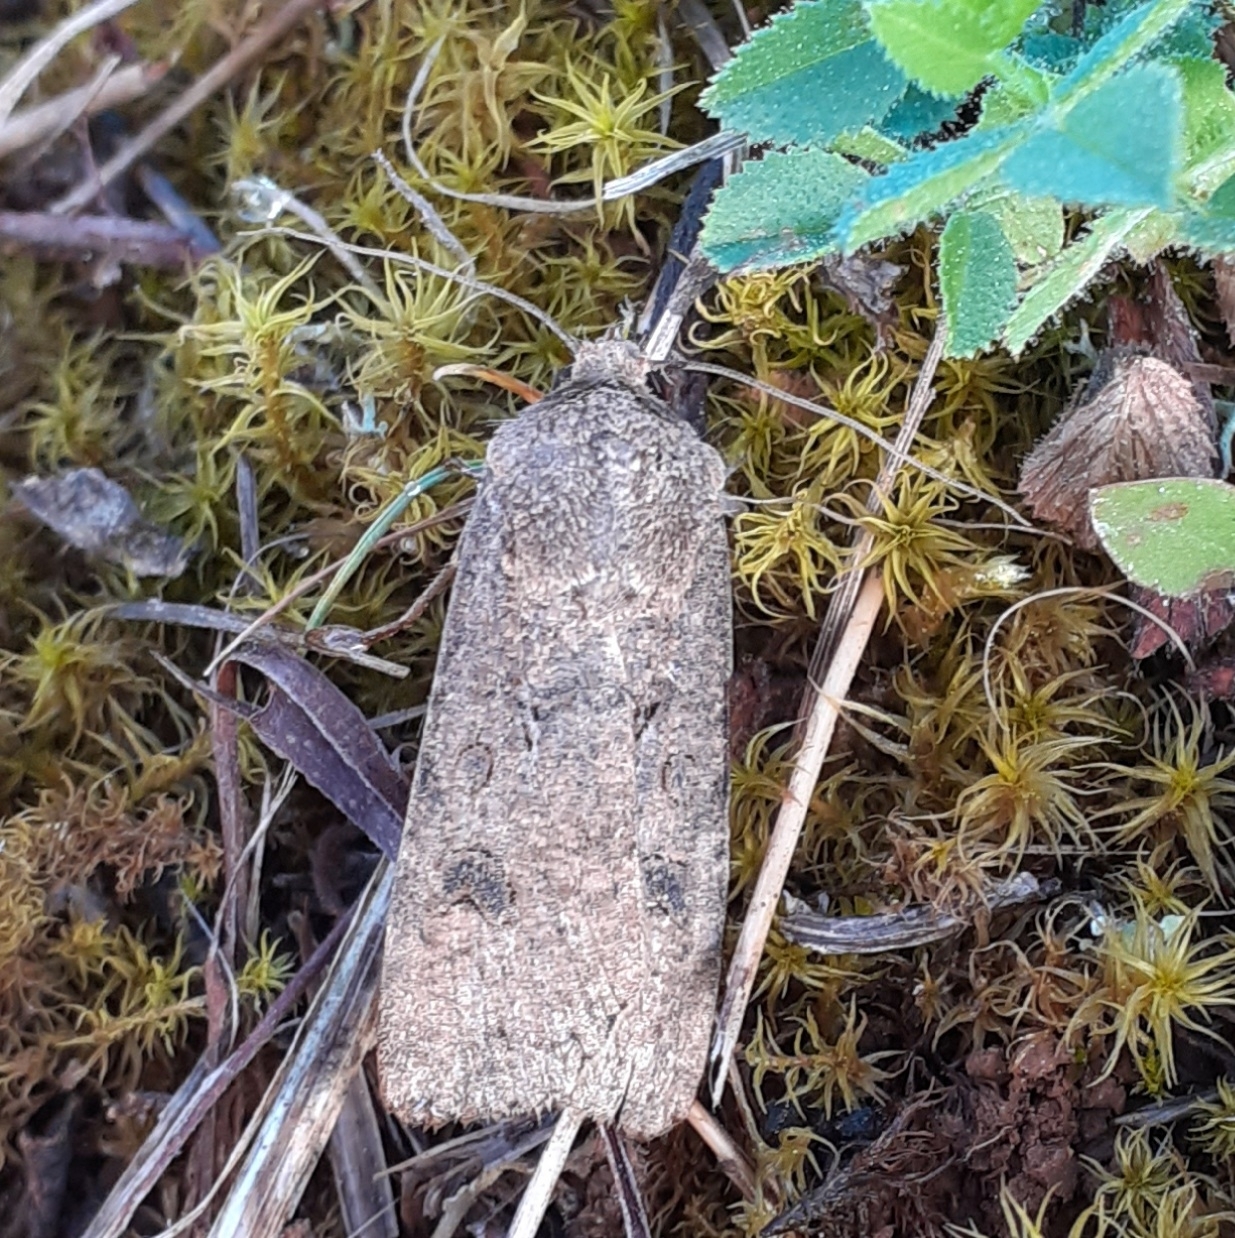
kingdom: Animalia
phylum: Arthropoda
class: Insecta
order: Lepidoptera
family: Noctuidae
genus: Agrotis
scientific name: Agrotis segetum
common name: Turnip moth
